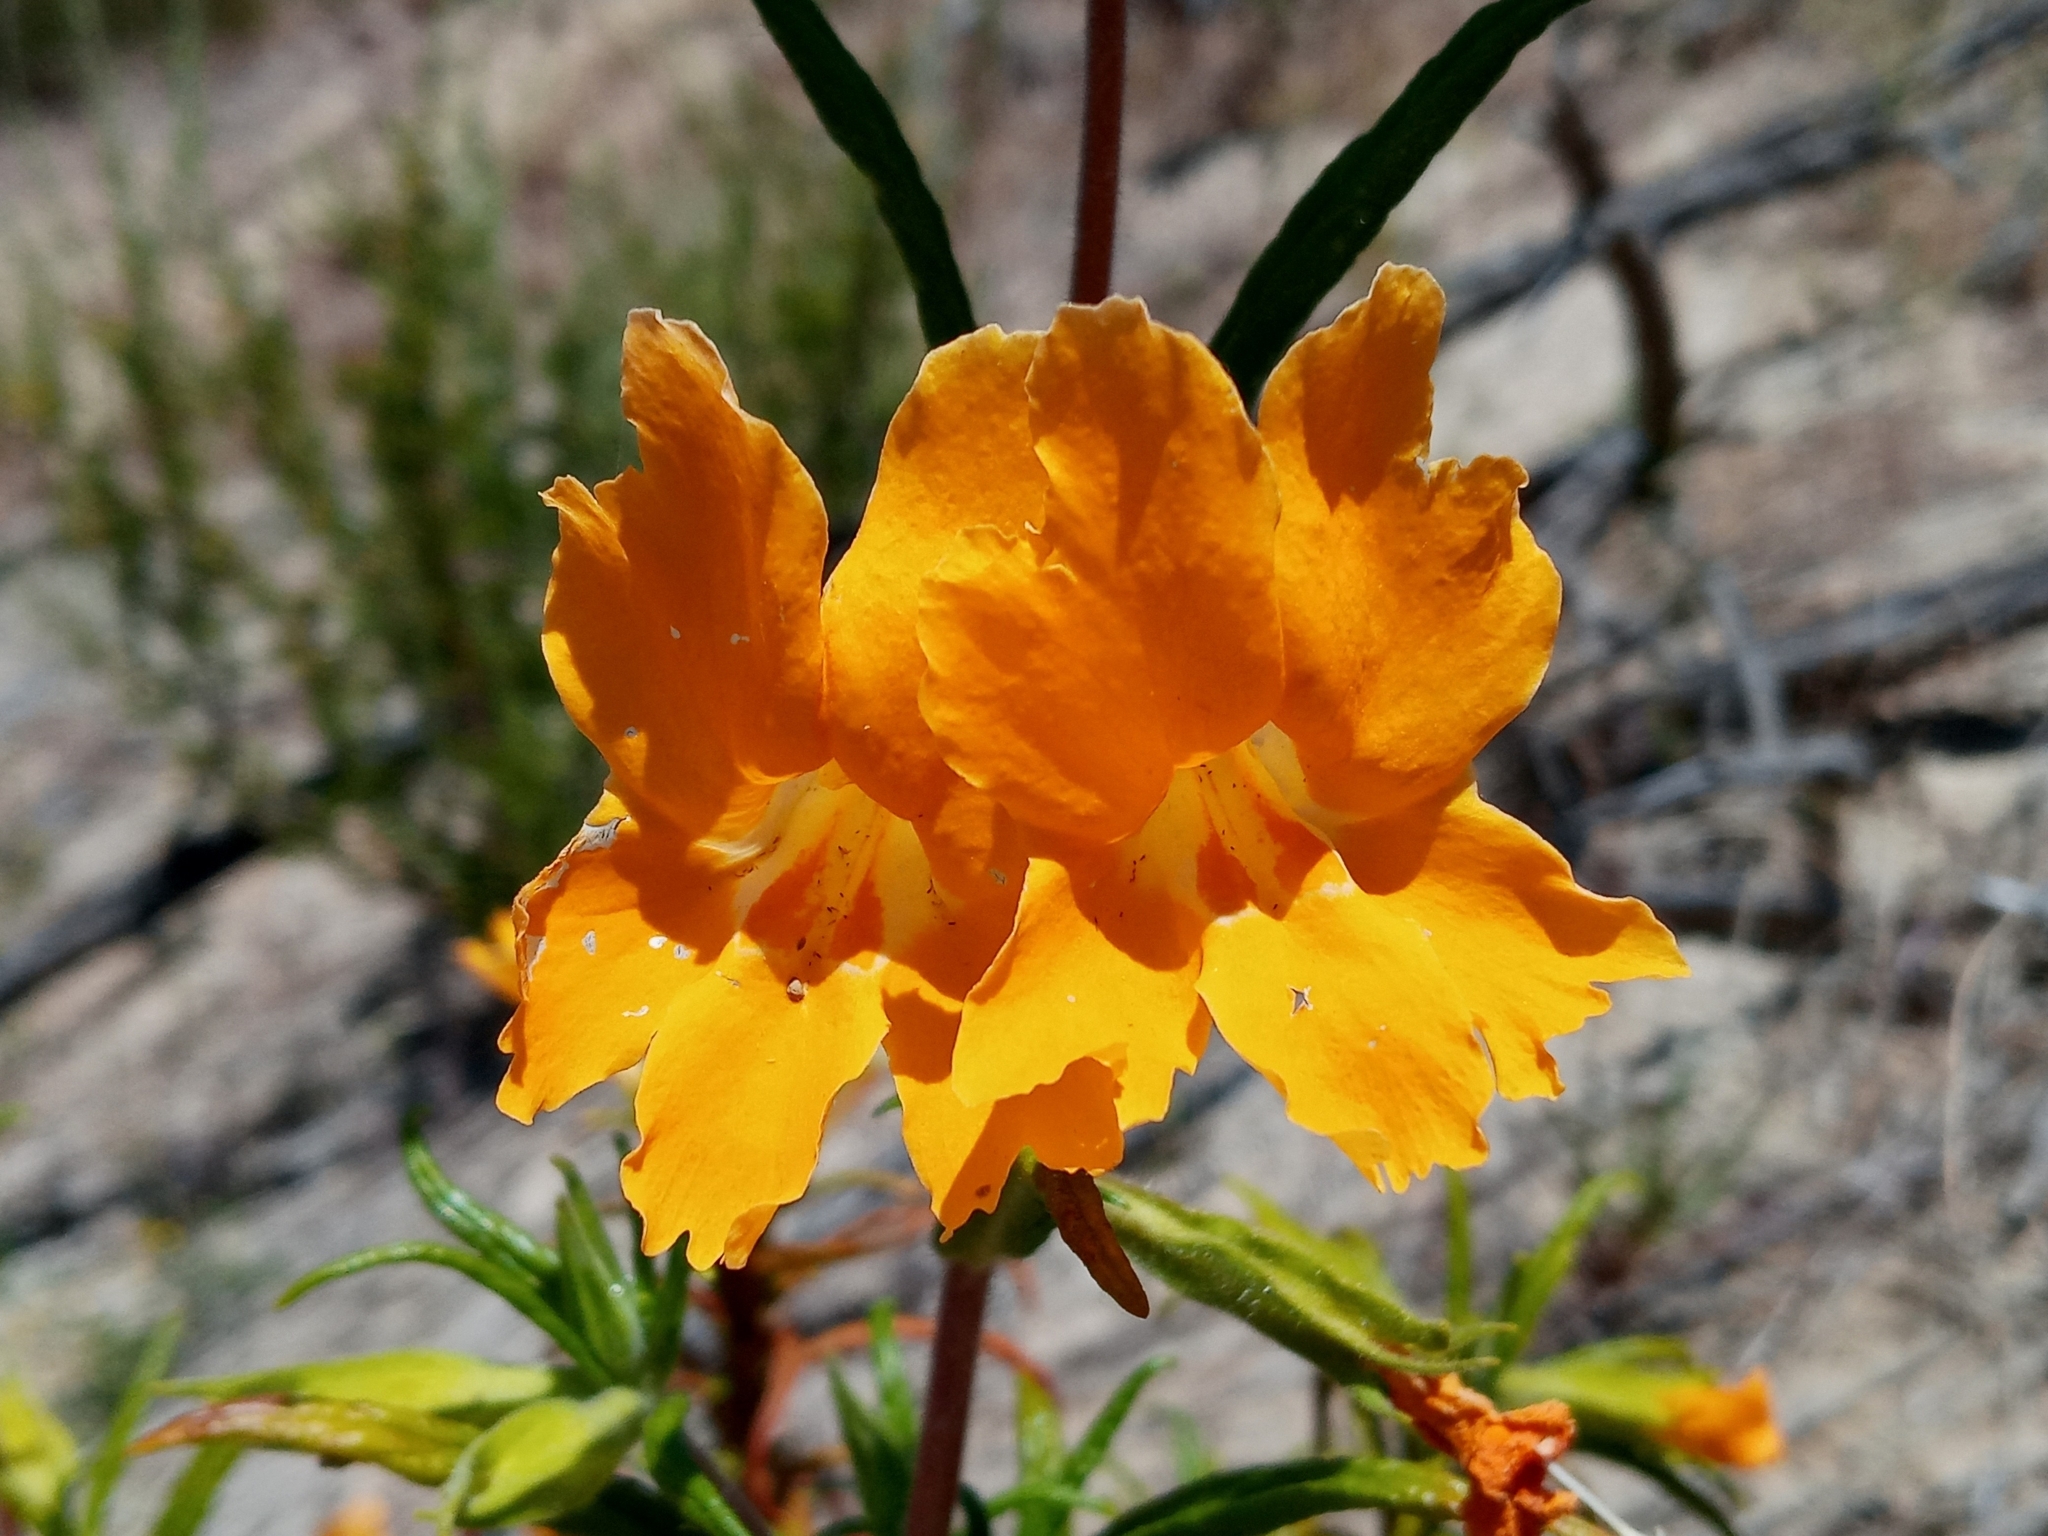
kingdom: Plantae
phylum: Tracheophyta
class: Magnoliopsida
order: Lamiales
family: Phrymaceae
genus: Diplacus
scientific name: Diplacus longiflorus
